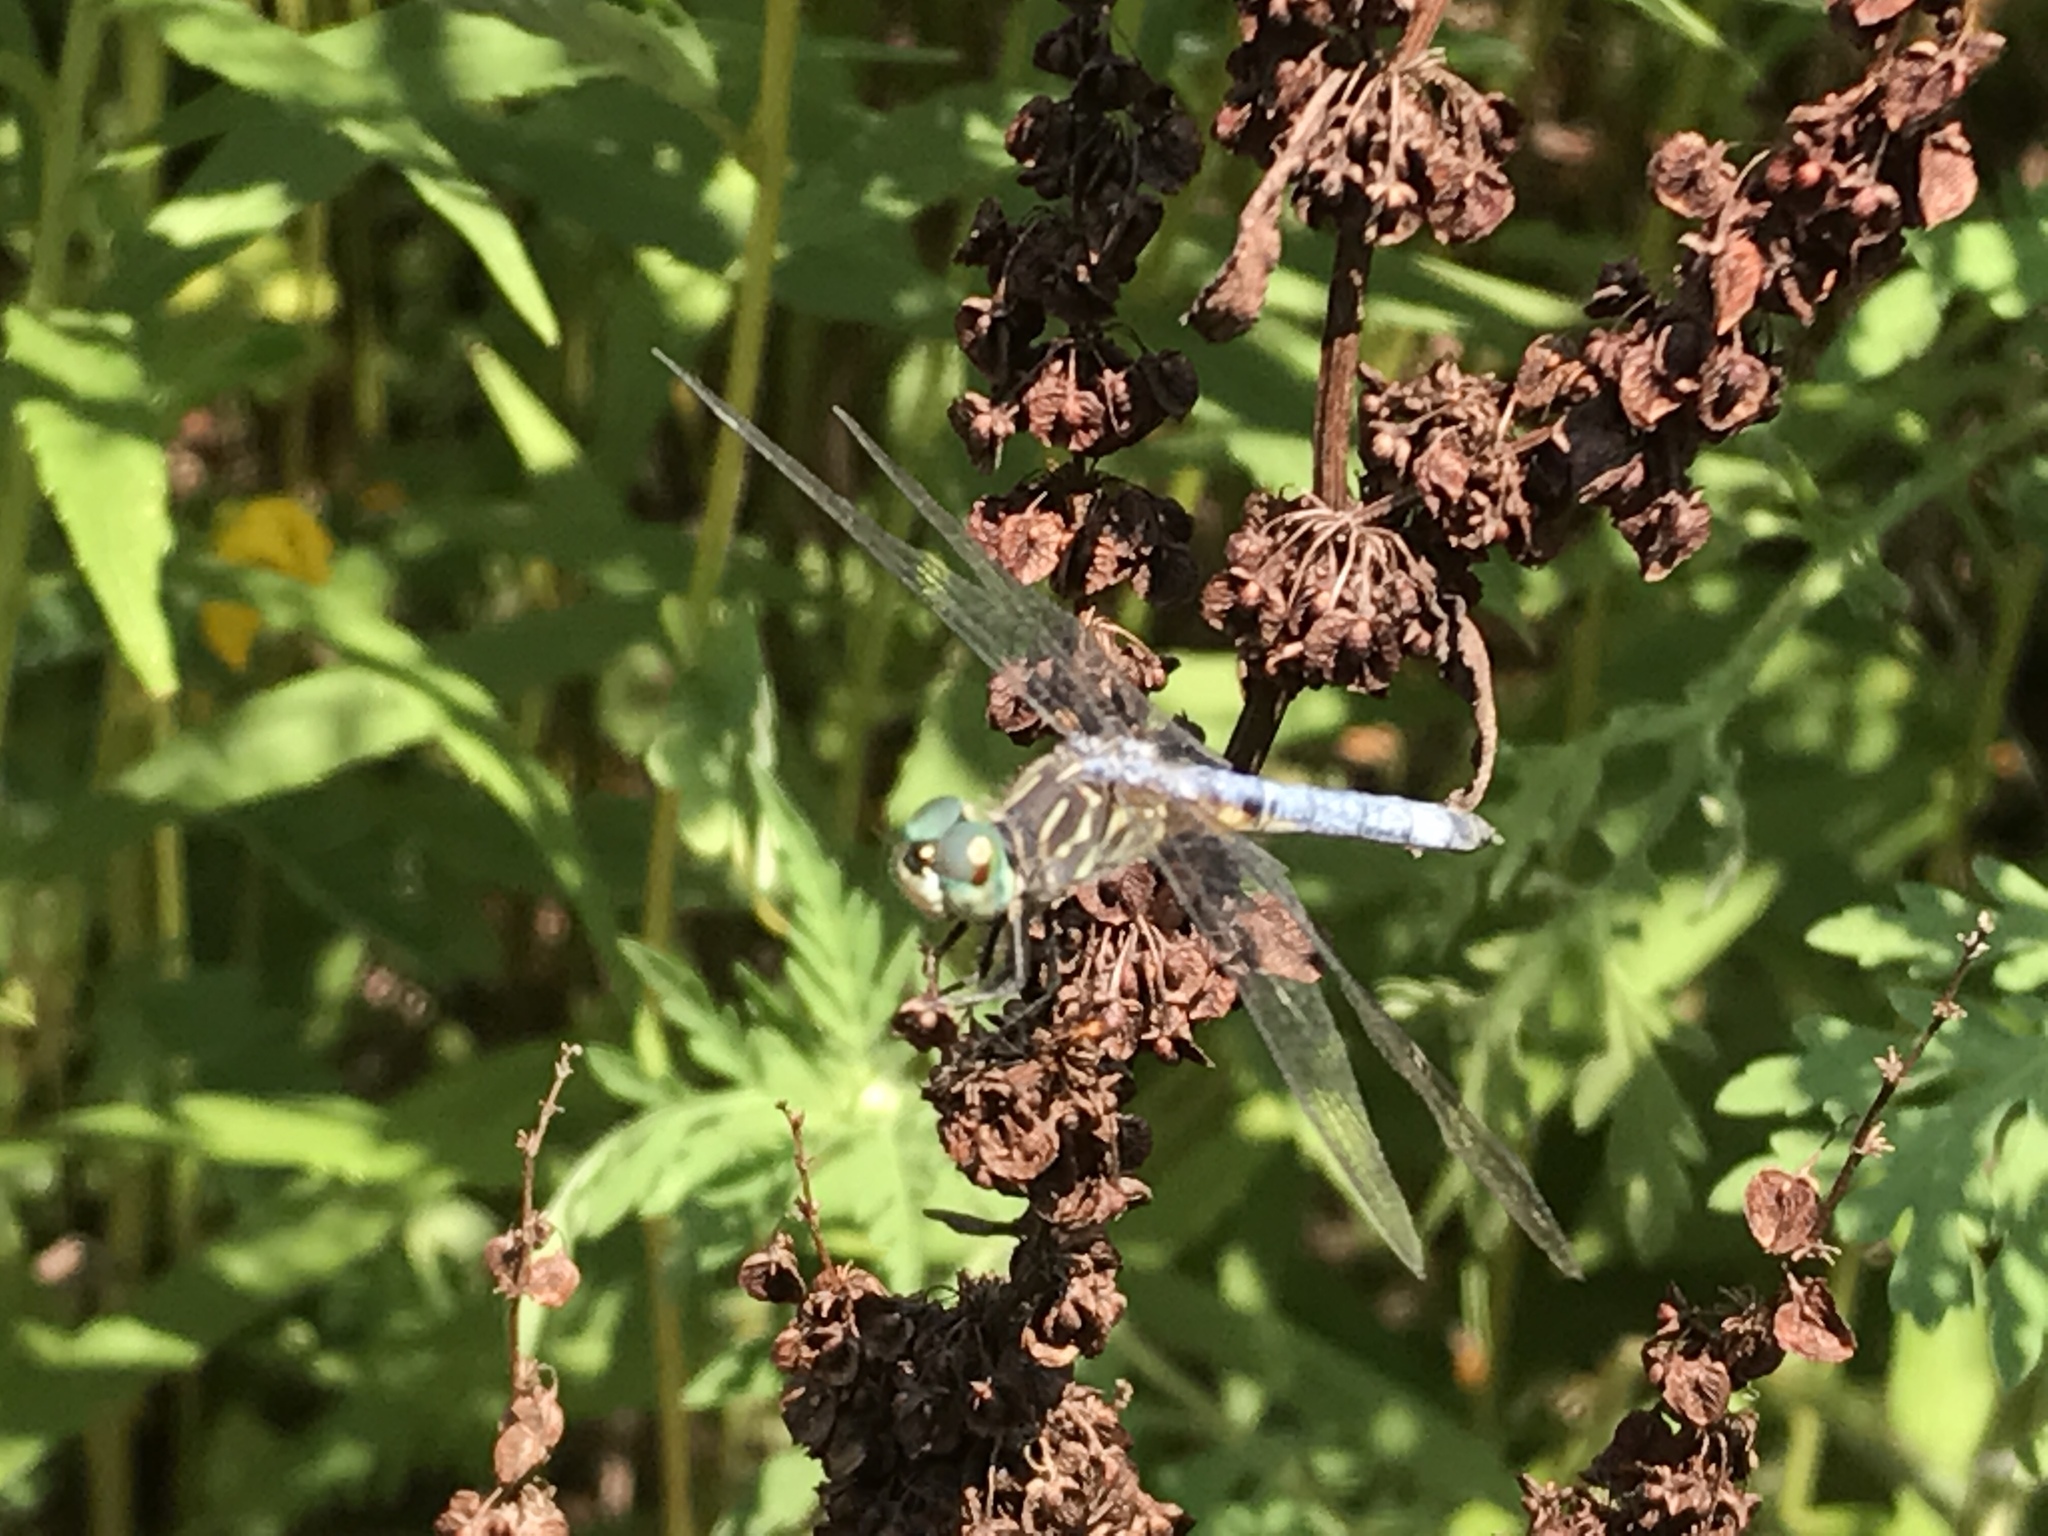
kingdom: Animalia
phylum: Arthropoda
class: Insecta
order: Odonata
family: Libellulidae
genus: Pachydiplax
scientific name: Pachydiplax longipennis
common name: Blue dasher
